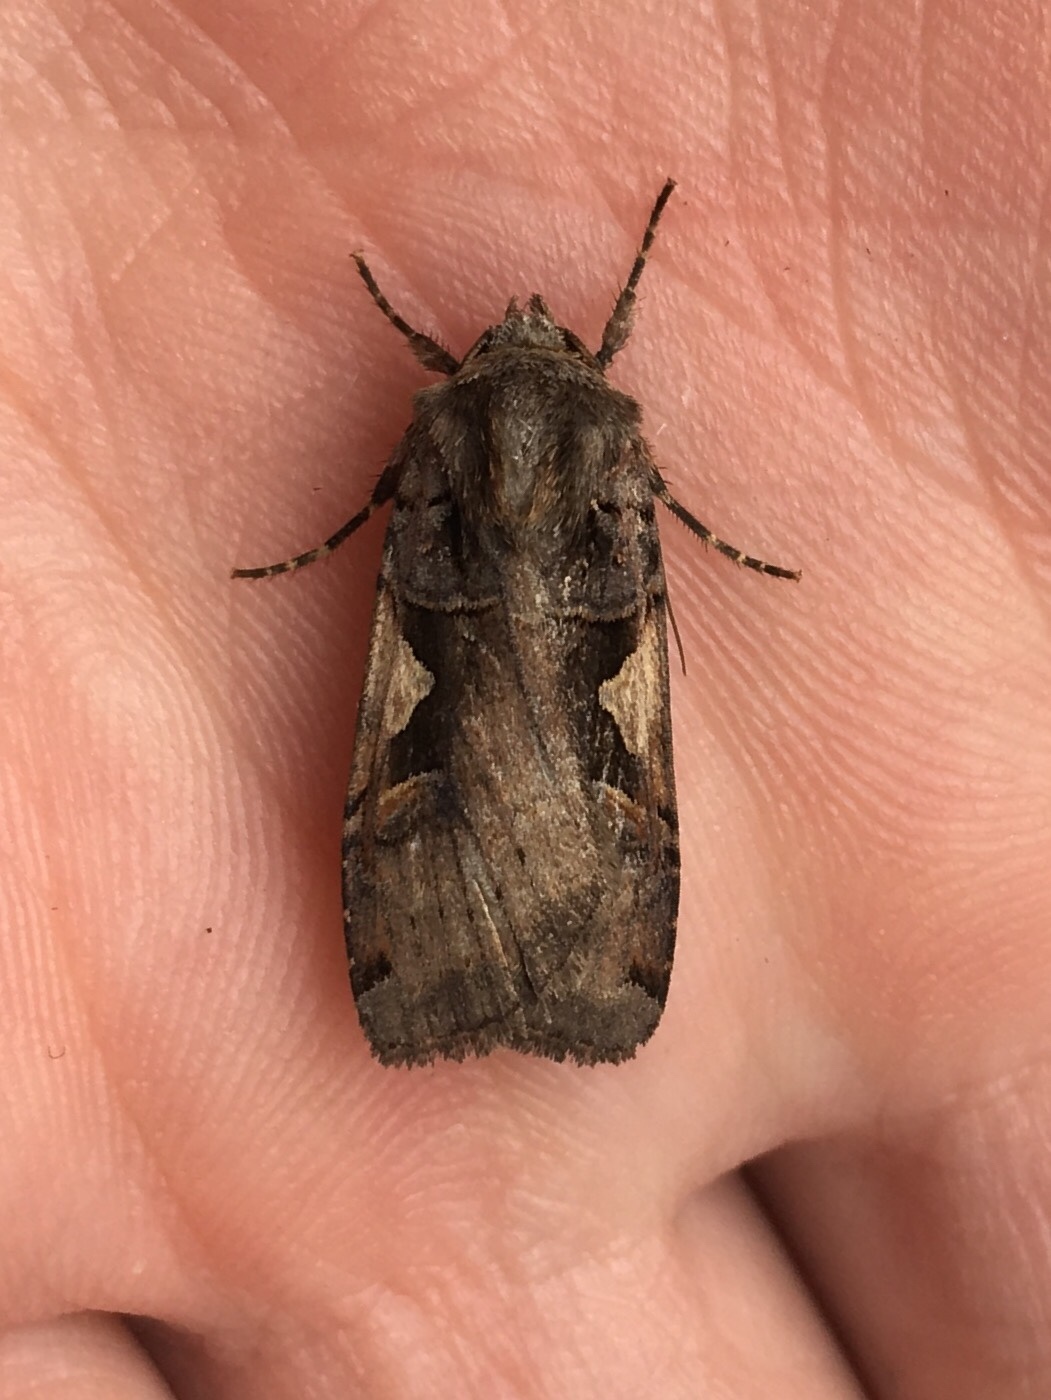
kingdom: Animalia
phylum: Arthropoda
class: Insecta
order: Lepidoptera
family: Noctuidae
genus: Xestia
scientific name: Xestia
